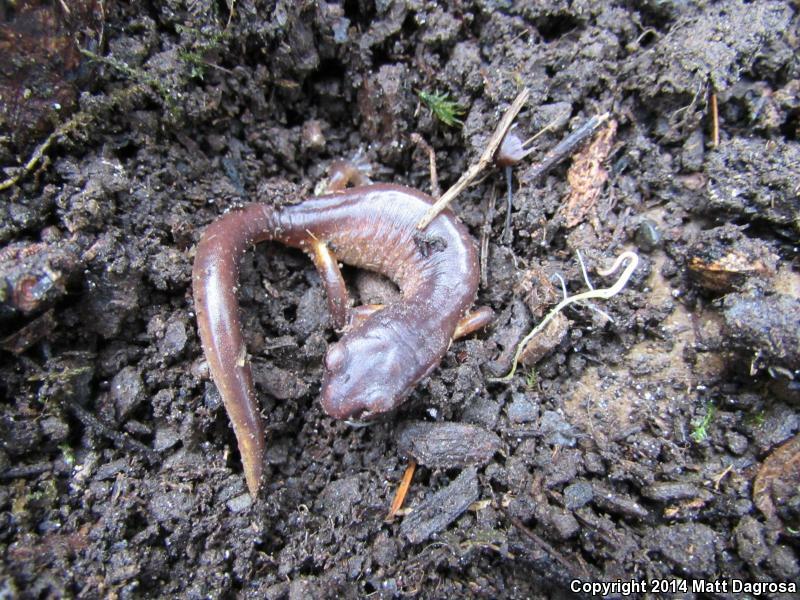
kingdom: Animalia
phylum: Chordata
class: Amphibia
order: Caudata
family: Plethodontidae
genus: Ensatina
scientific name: Ensatina eschscholtzii
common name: Ensatina
